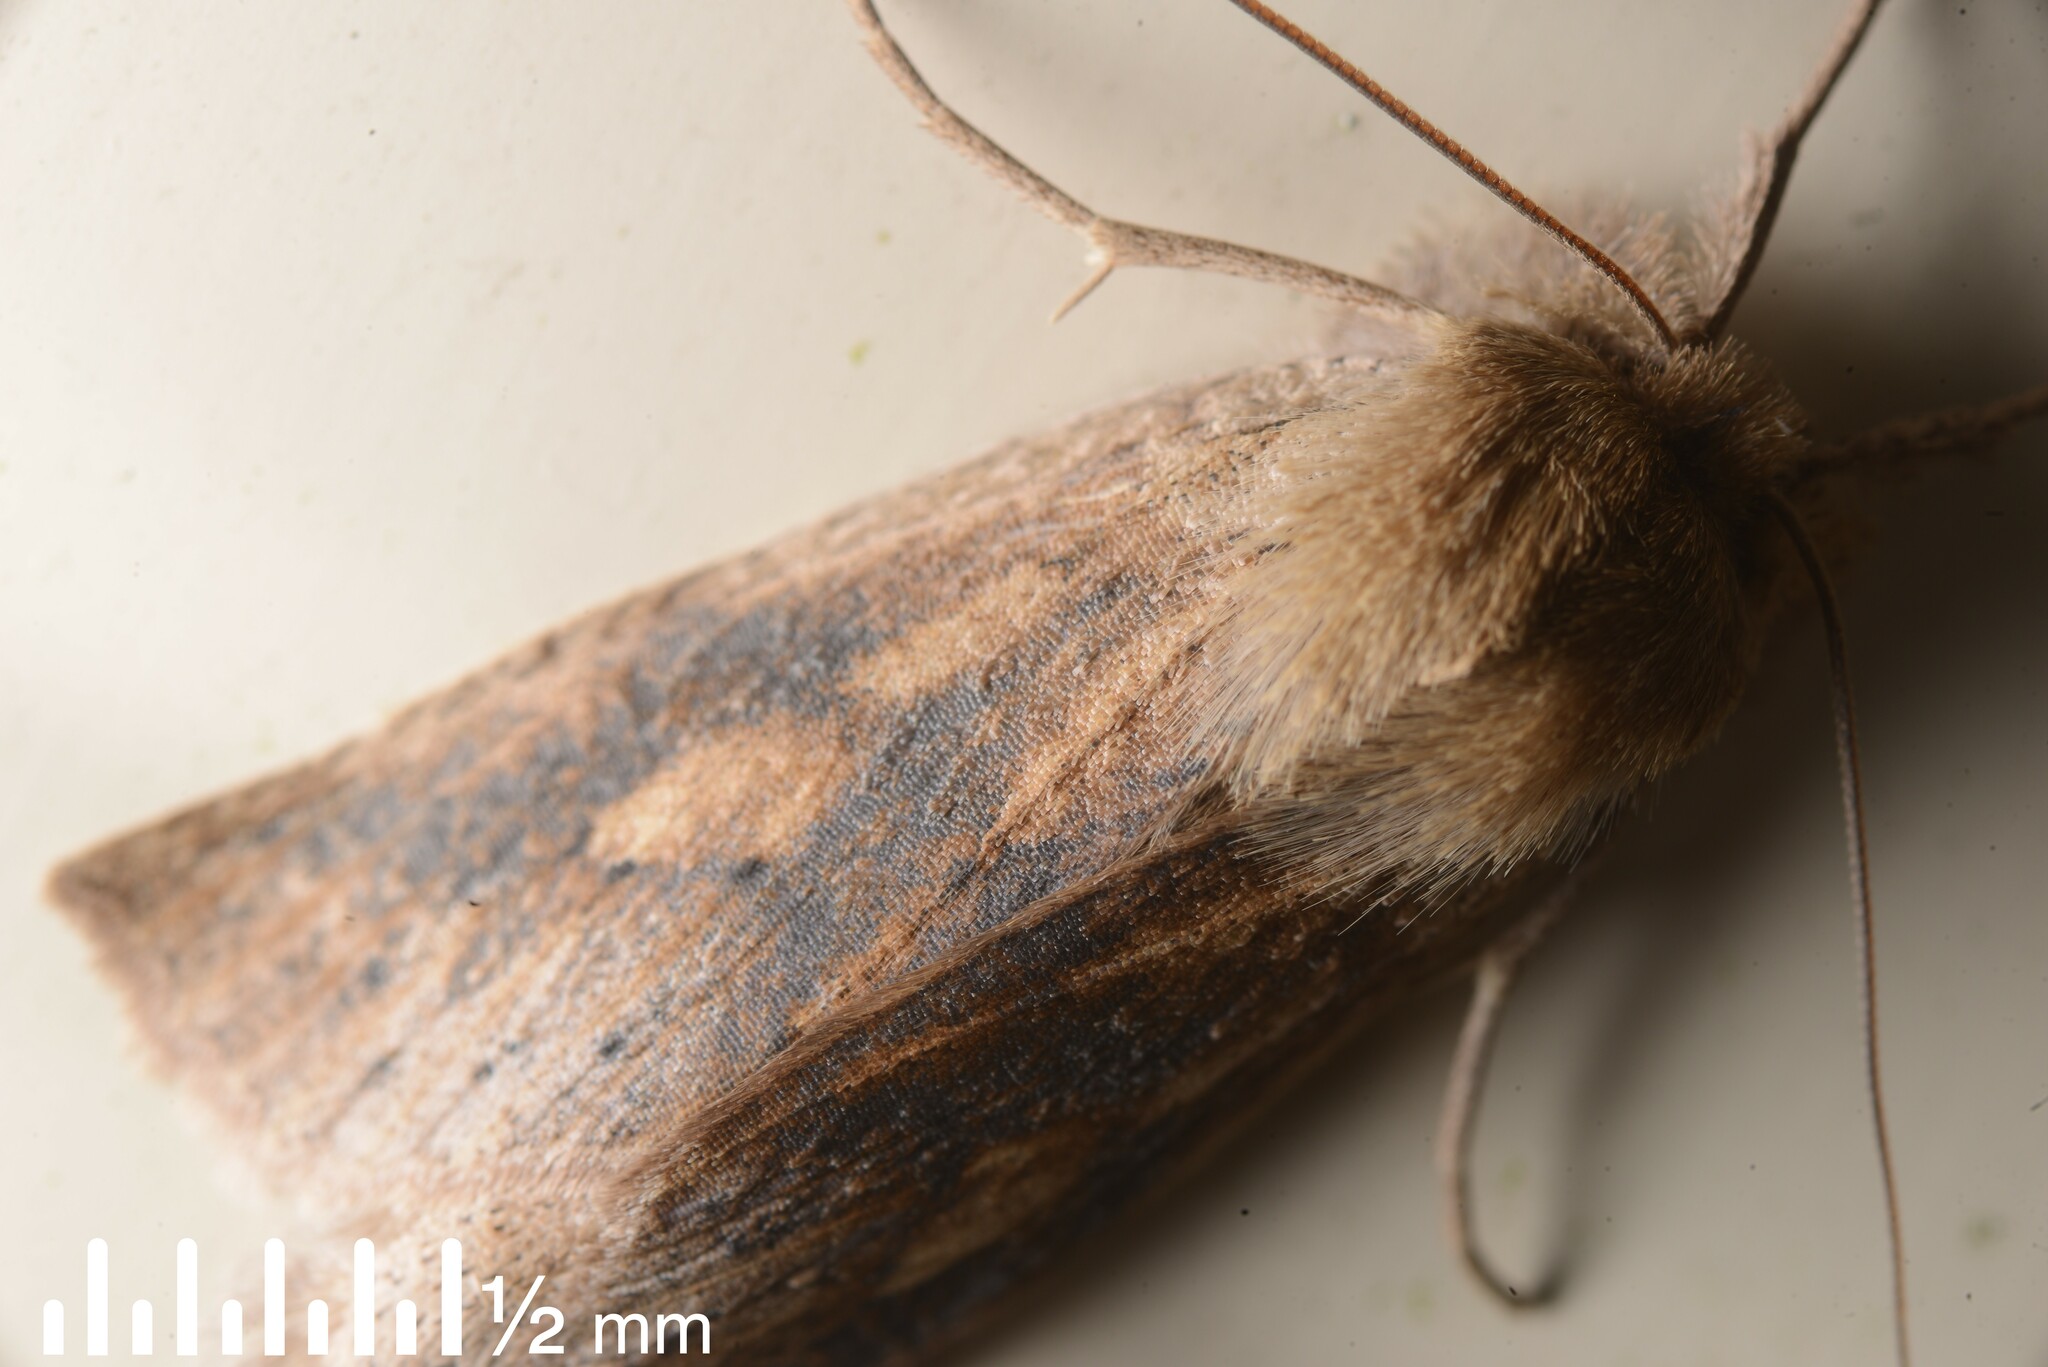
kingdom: Animalia
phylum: Arthropoda
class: Insecta
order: Lepidoptera
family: Geometridae
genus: Declana
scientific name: Declana leptomera
